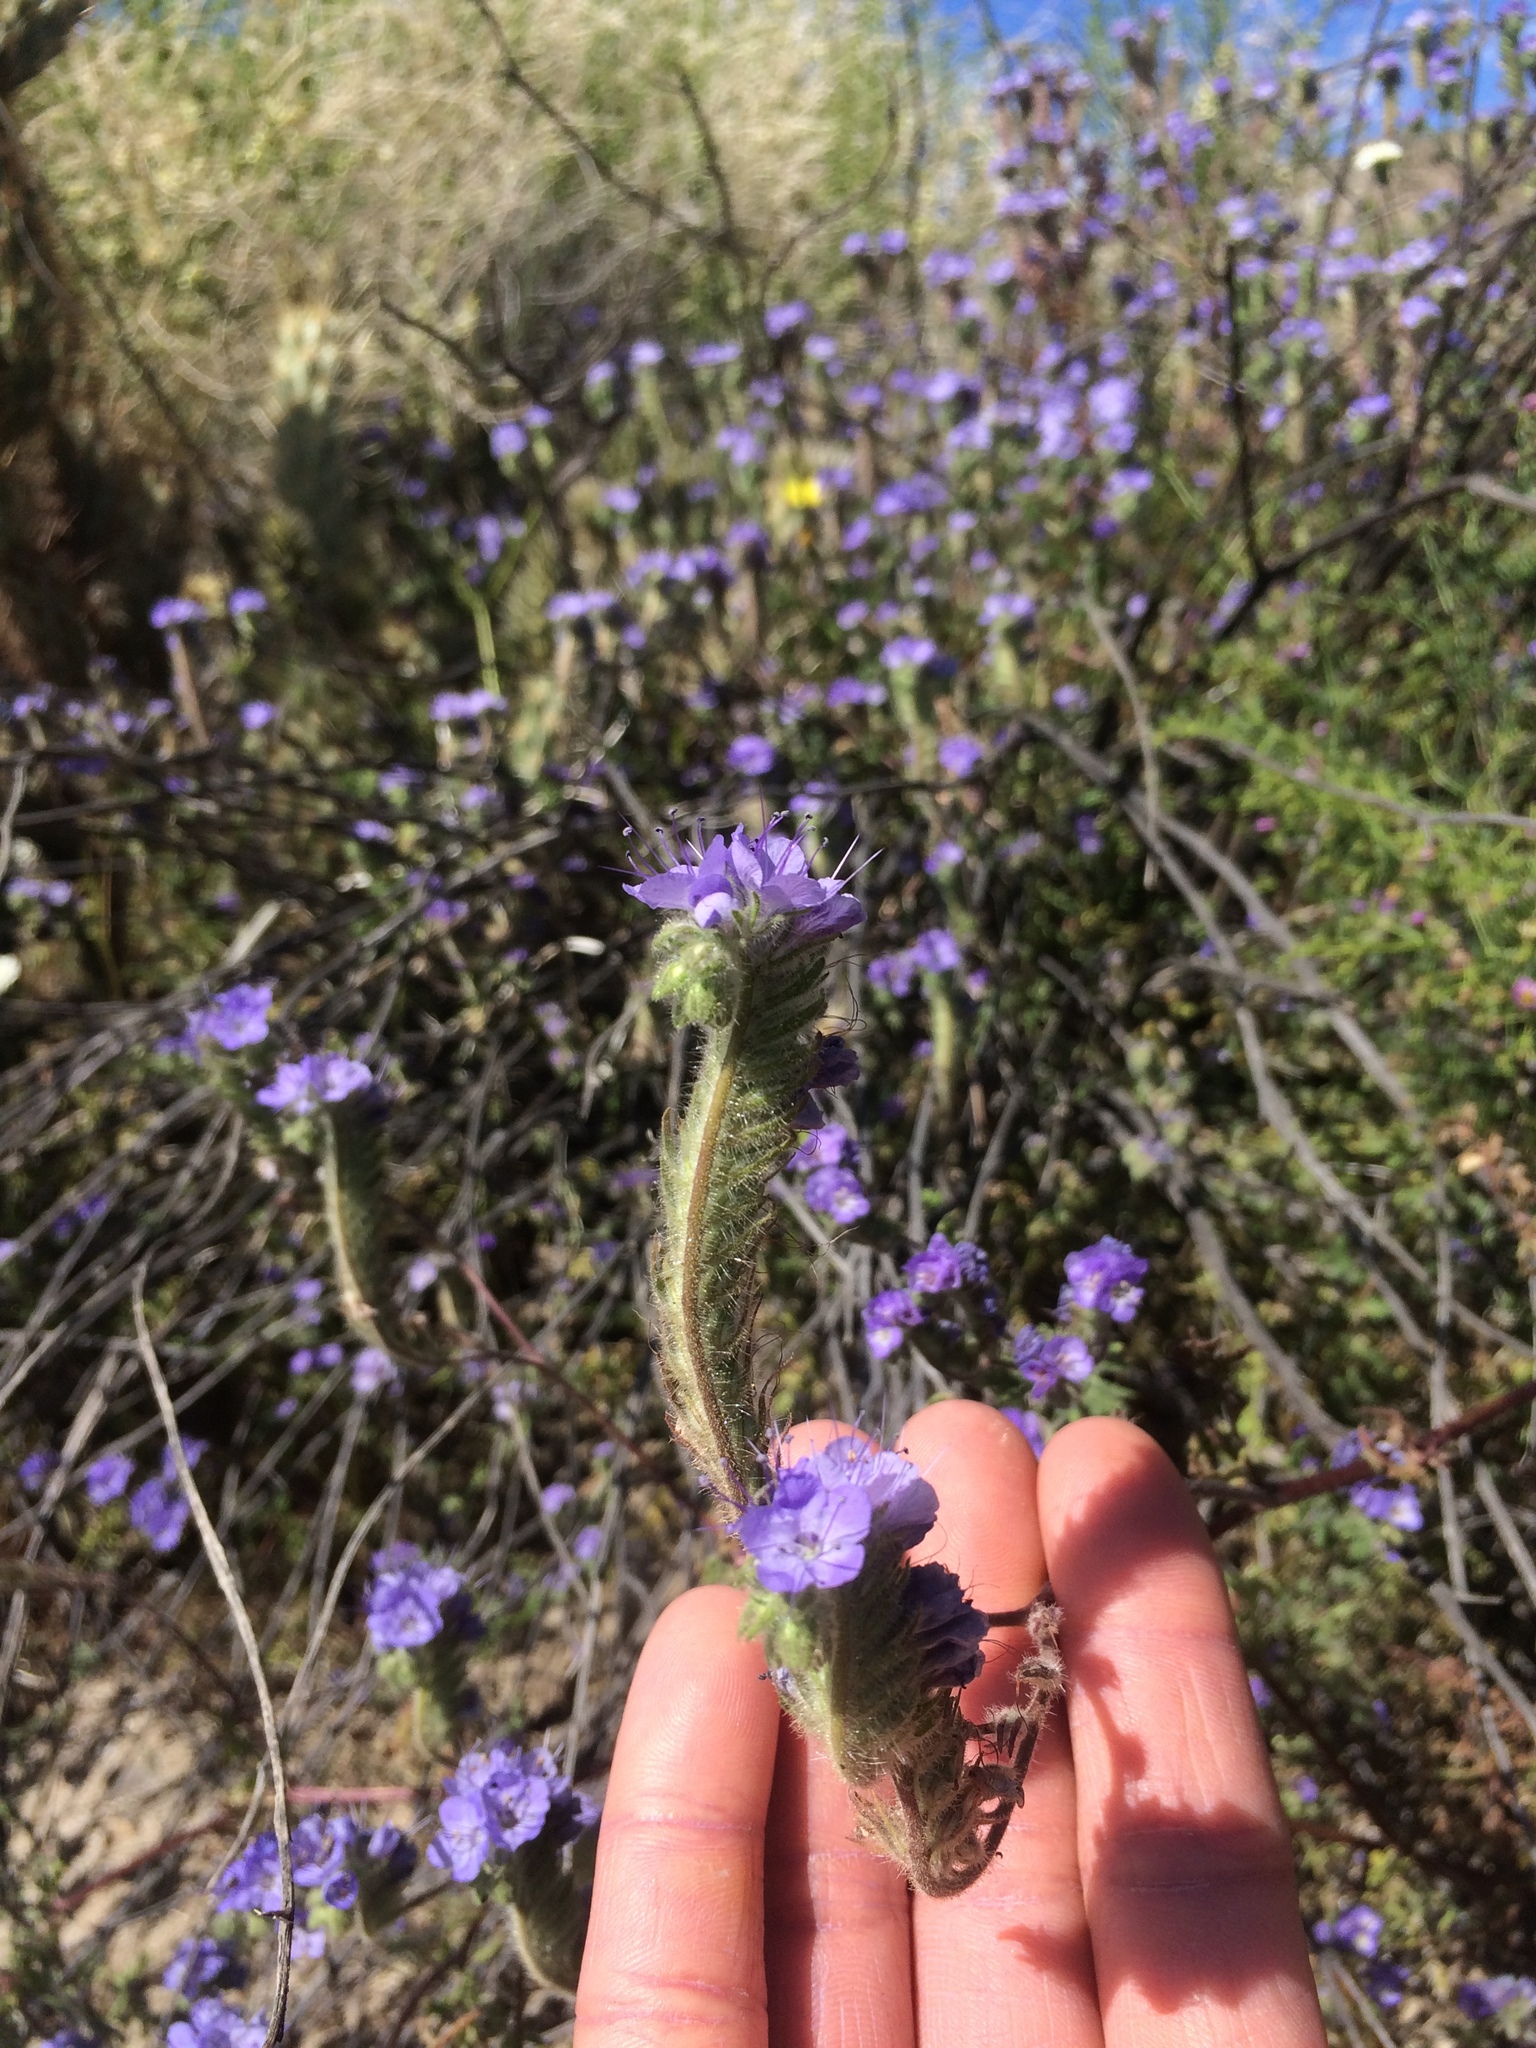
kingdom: Plantae
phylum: Tracheophyta
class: Magnoliopsida
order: Boraginales
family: Hydrophyllaceae
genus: Phacelia
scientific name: Phacelia distans
